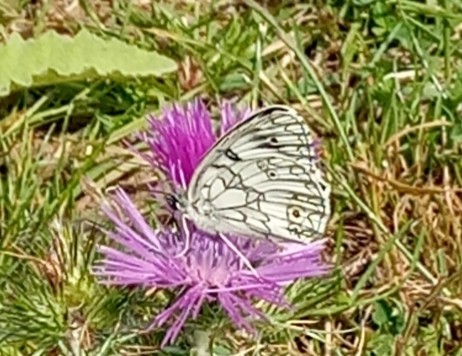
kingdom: Animalia
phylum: Arthropoda
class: Insecta
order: Lepidoptera
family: Nymphalidae
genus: Melanargia
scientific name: Melanargia lucasi
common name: Moroccan marbled white
